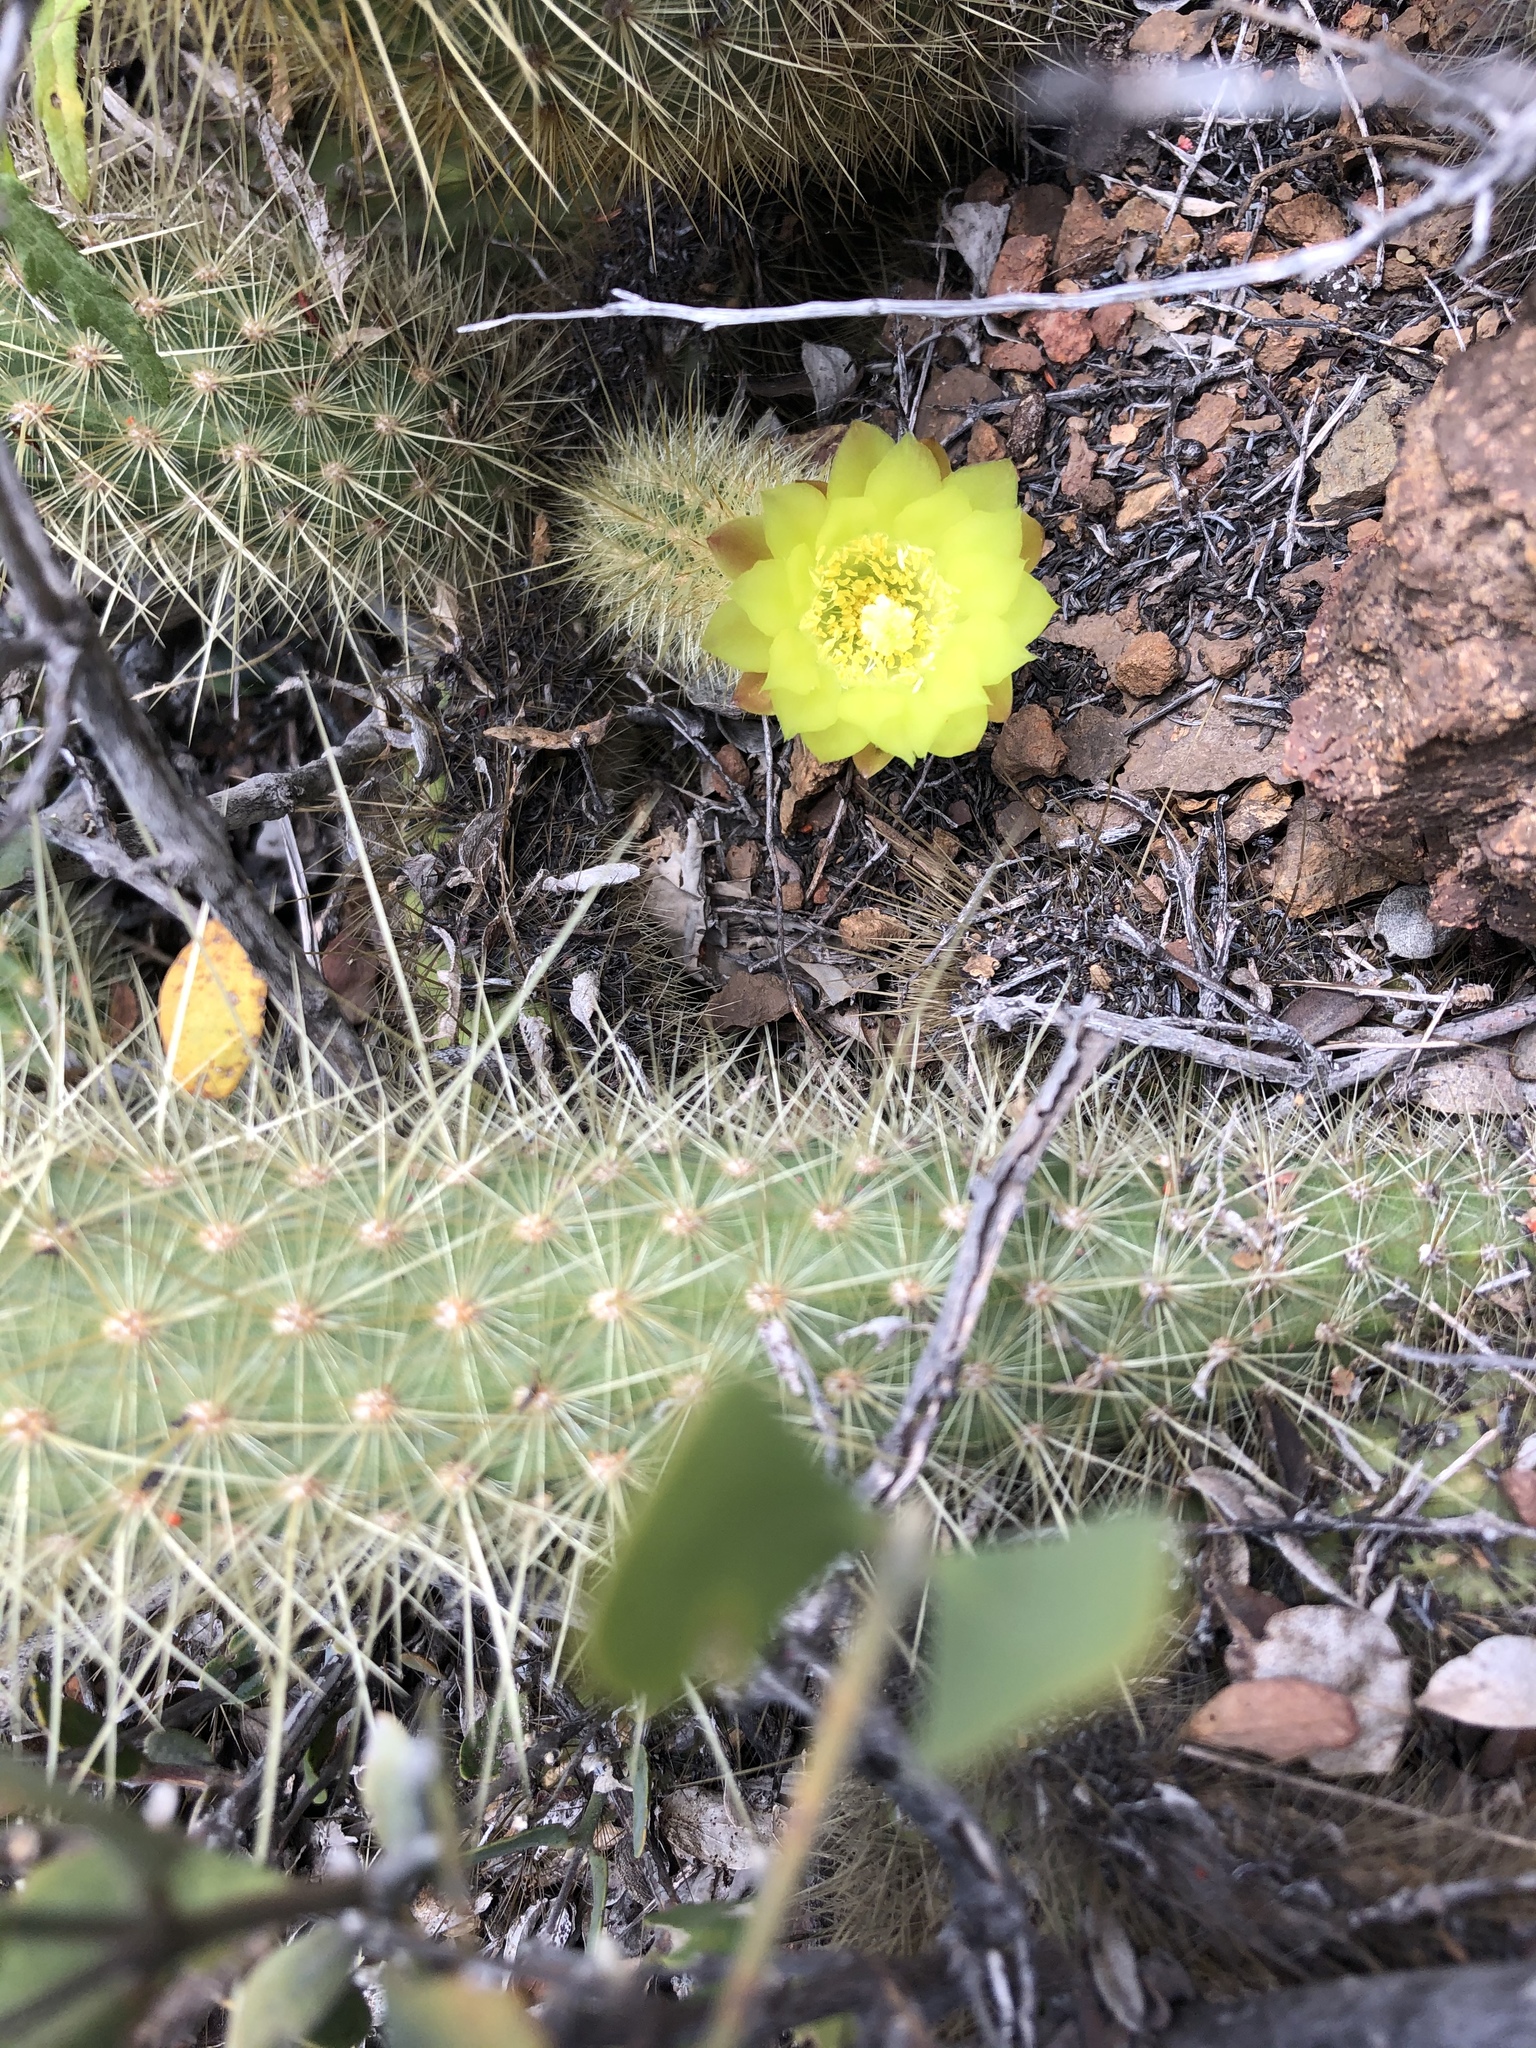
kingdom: Plantae
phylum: Tracheophyta
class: Magnoliopsida
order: Caryophyllales
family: Cactaceae
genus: Bergerocactus
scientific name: Bergerocactus emoryi
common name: Golden snakecactus
